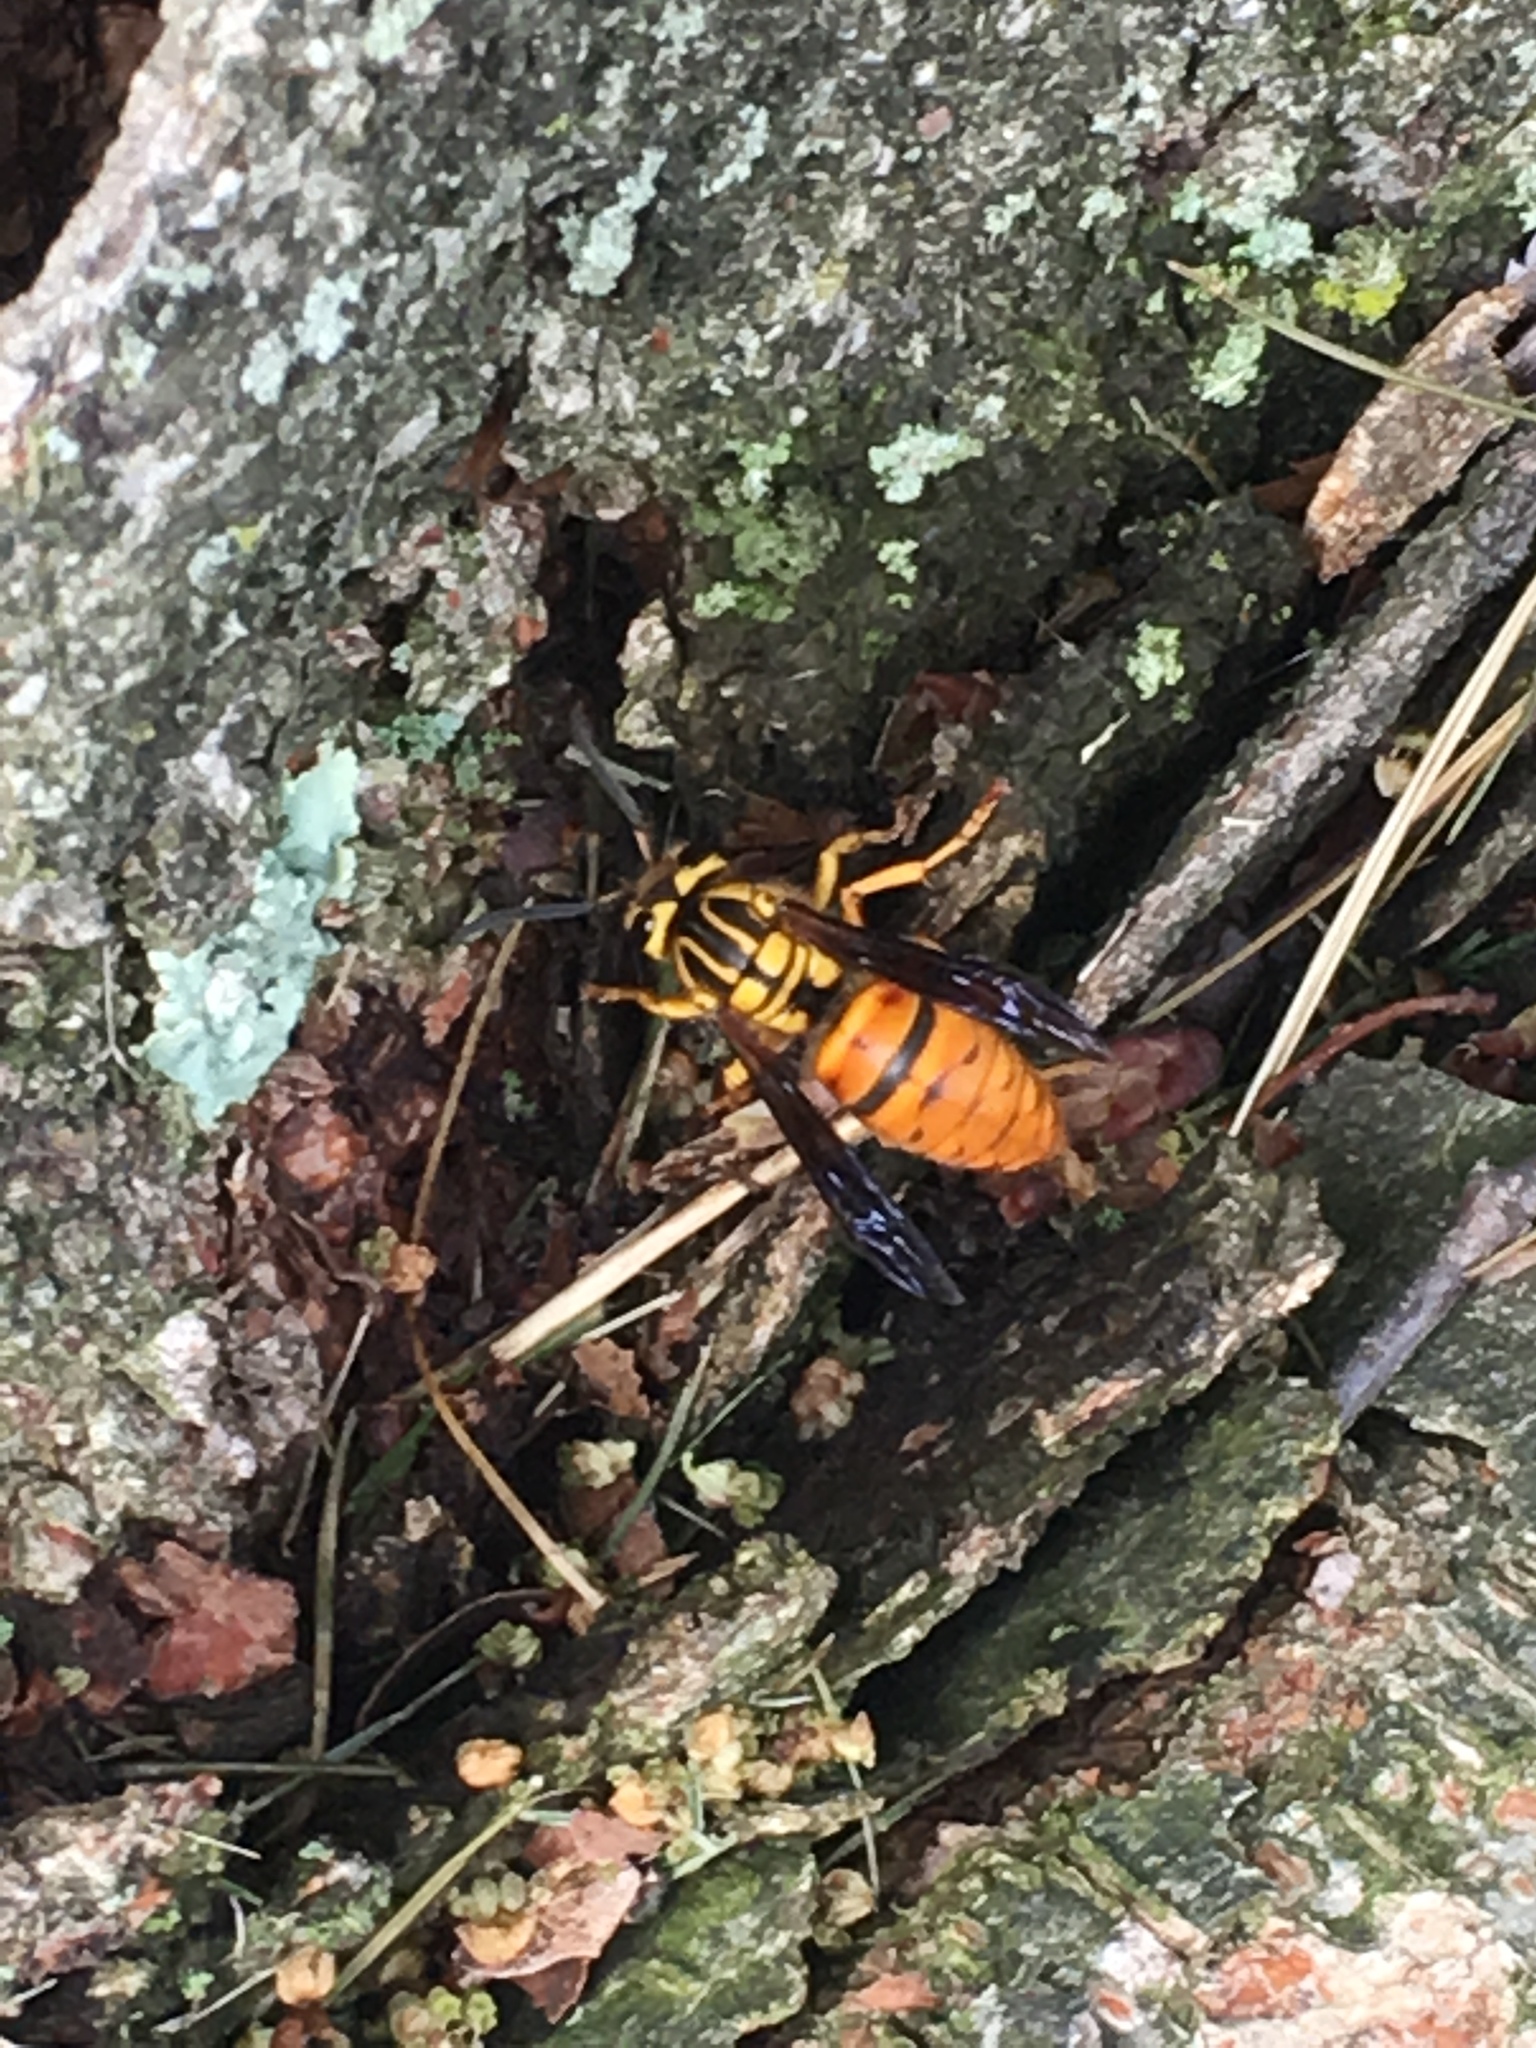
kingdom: Animalia
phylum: Arthropoda
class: Insecta
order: Hymenoptera
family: Vespidae
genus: Vespula
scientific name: Vespula squamosa
